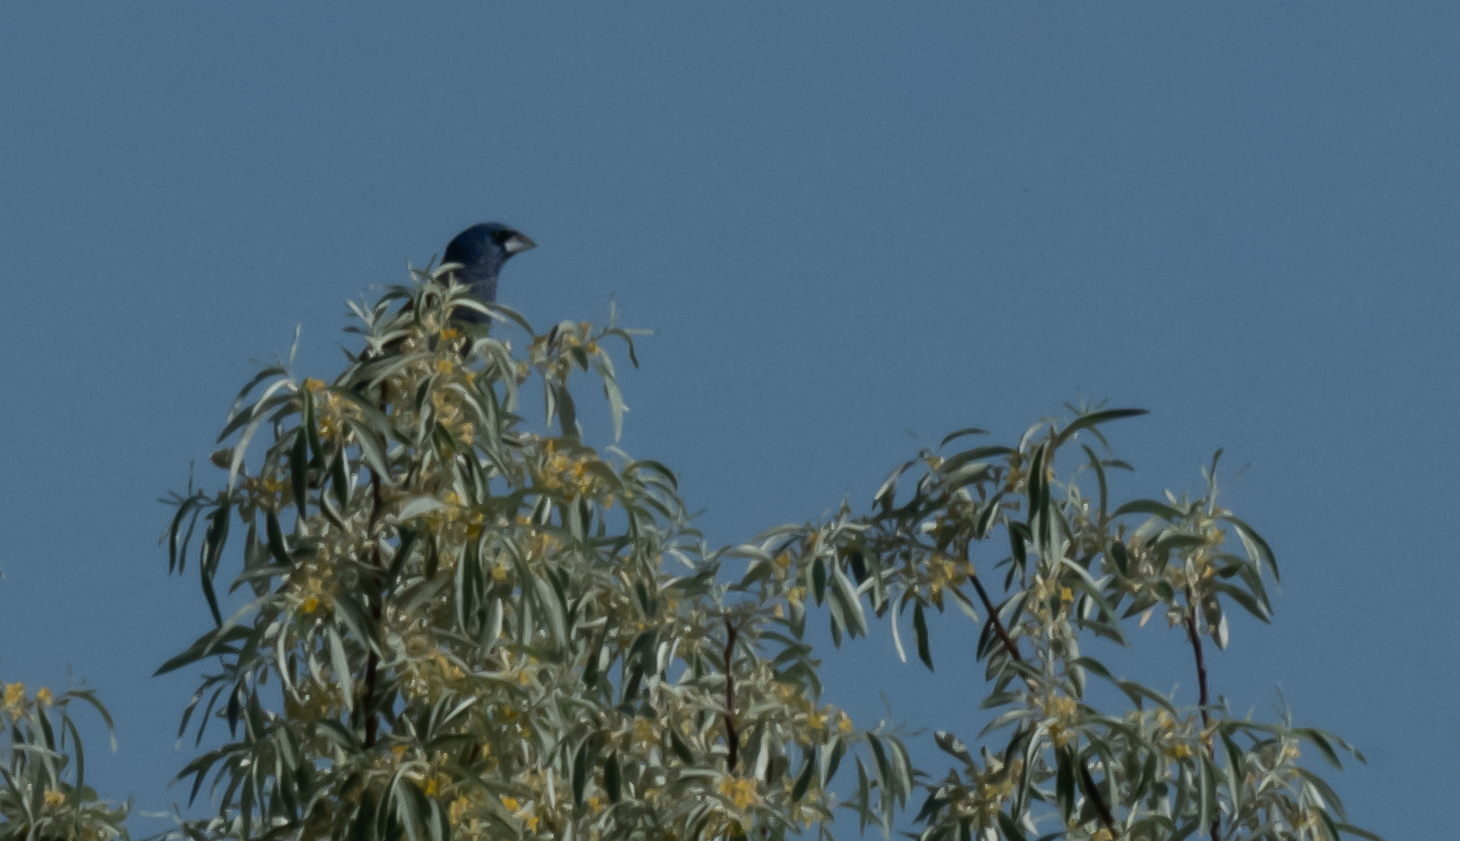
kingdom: Animalia
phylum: Chordata
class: Aves
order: Passeriformes
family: Cardinalidae
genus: Passerina
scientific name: Passerina caerulea
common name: Blue grosbeak
